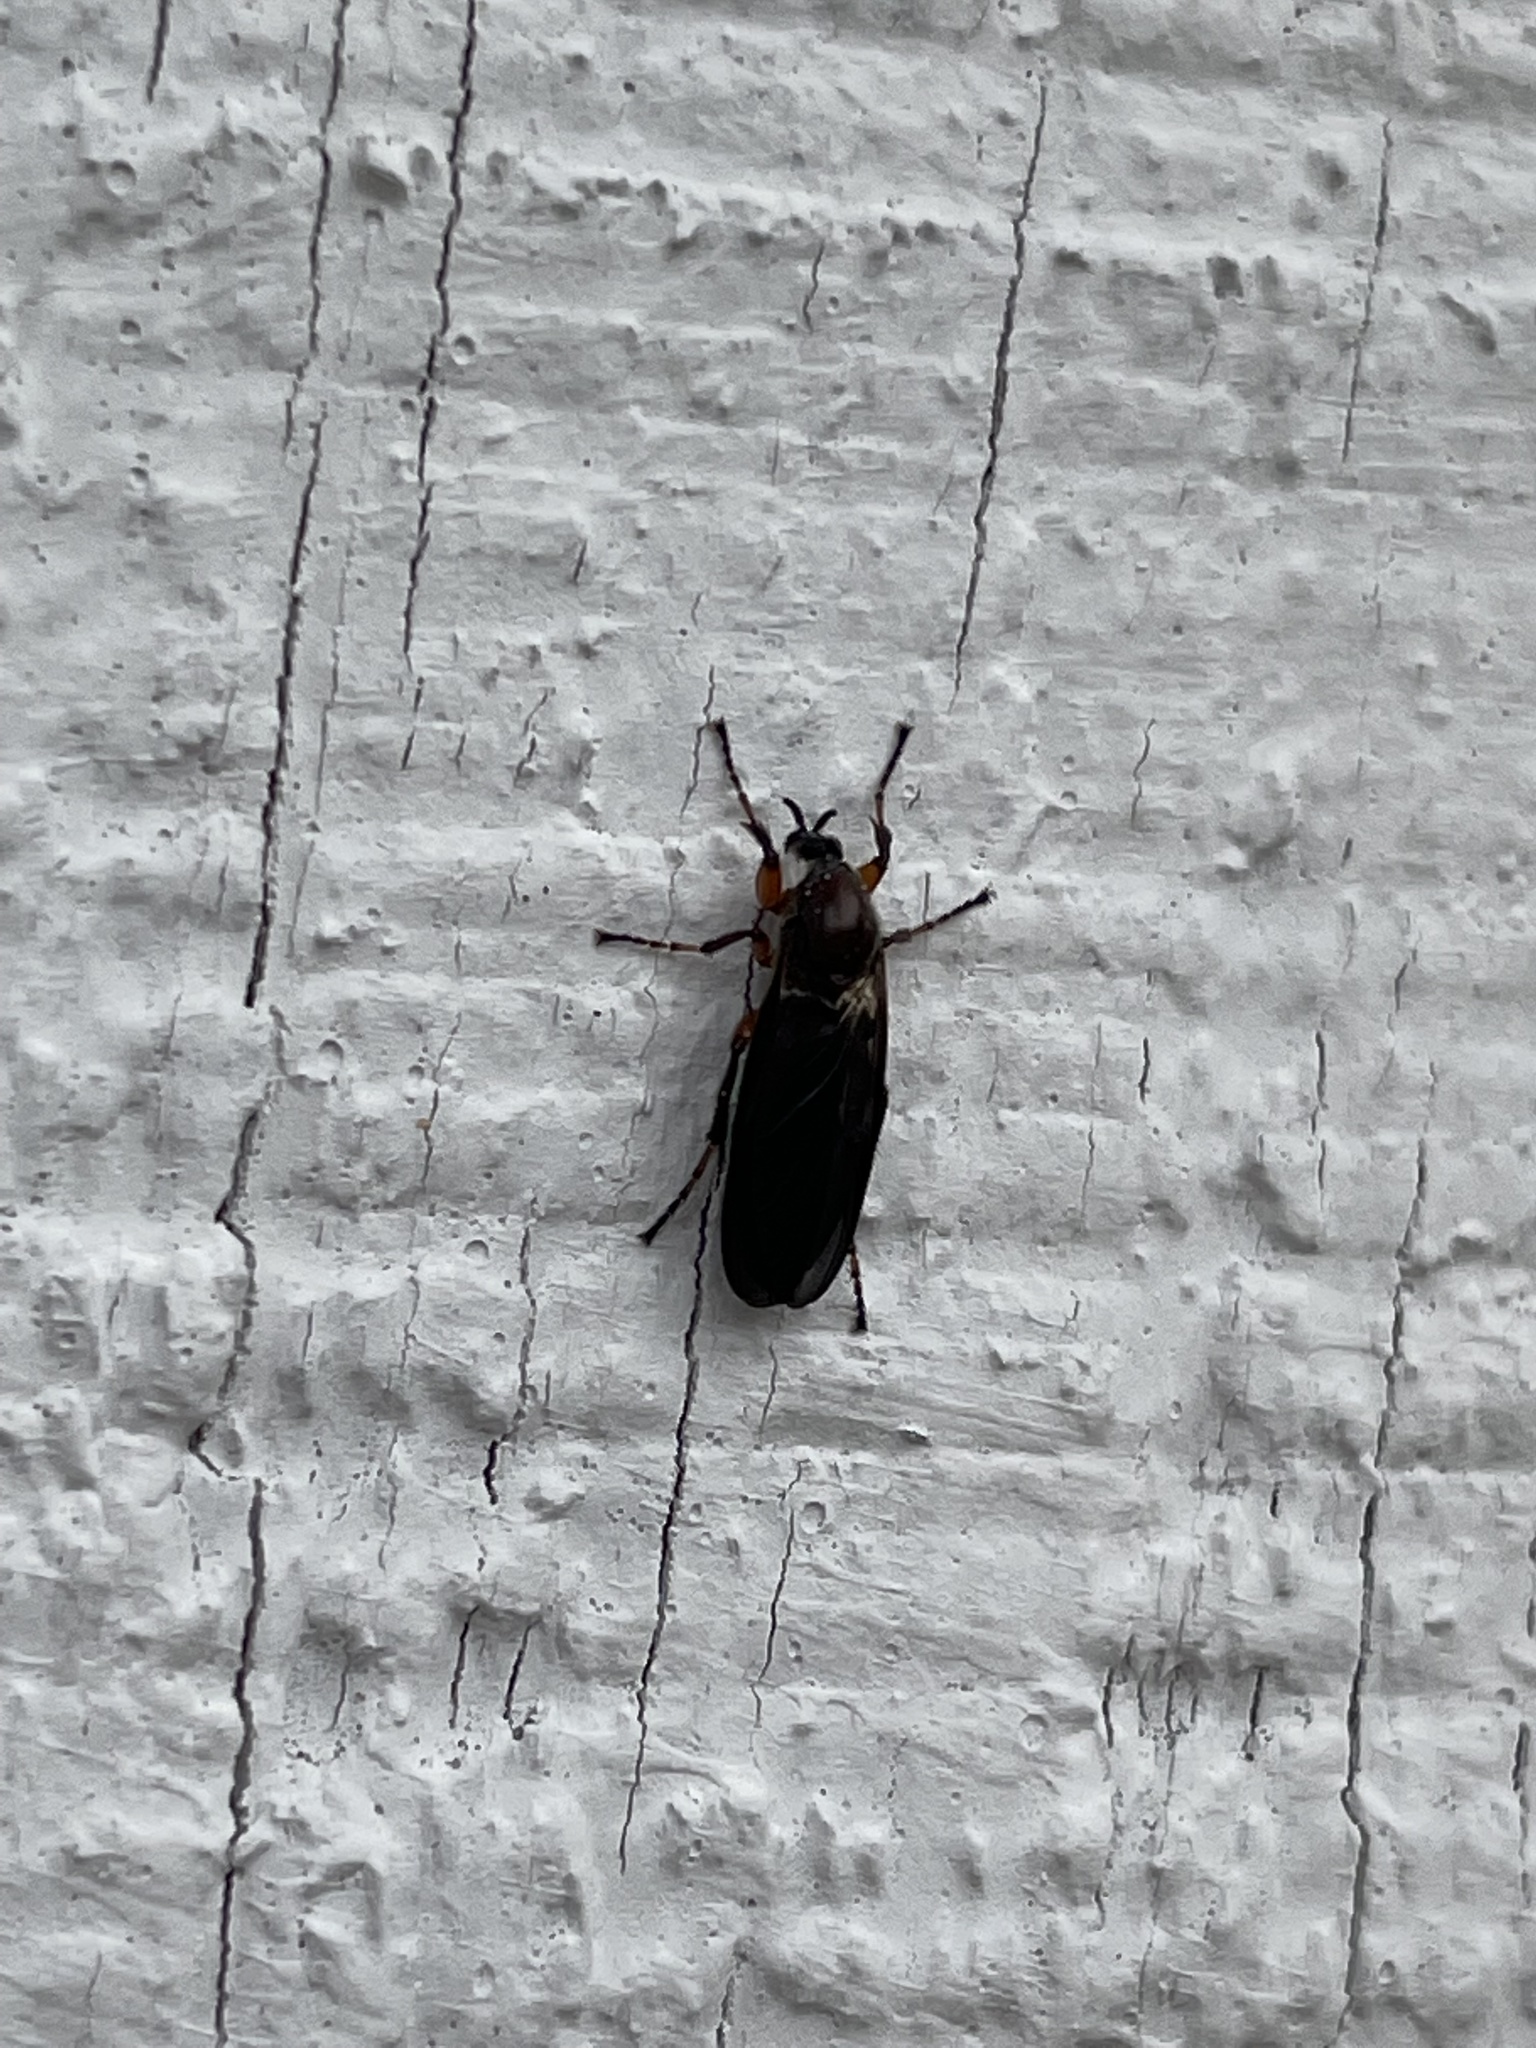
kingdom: Animalia
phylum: Arthropoda
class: Insecta
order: Diptera
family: Bibionidae
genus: Bibio
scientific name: Bibio articulatus
